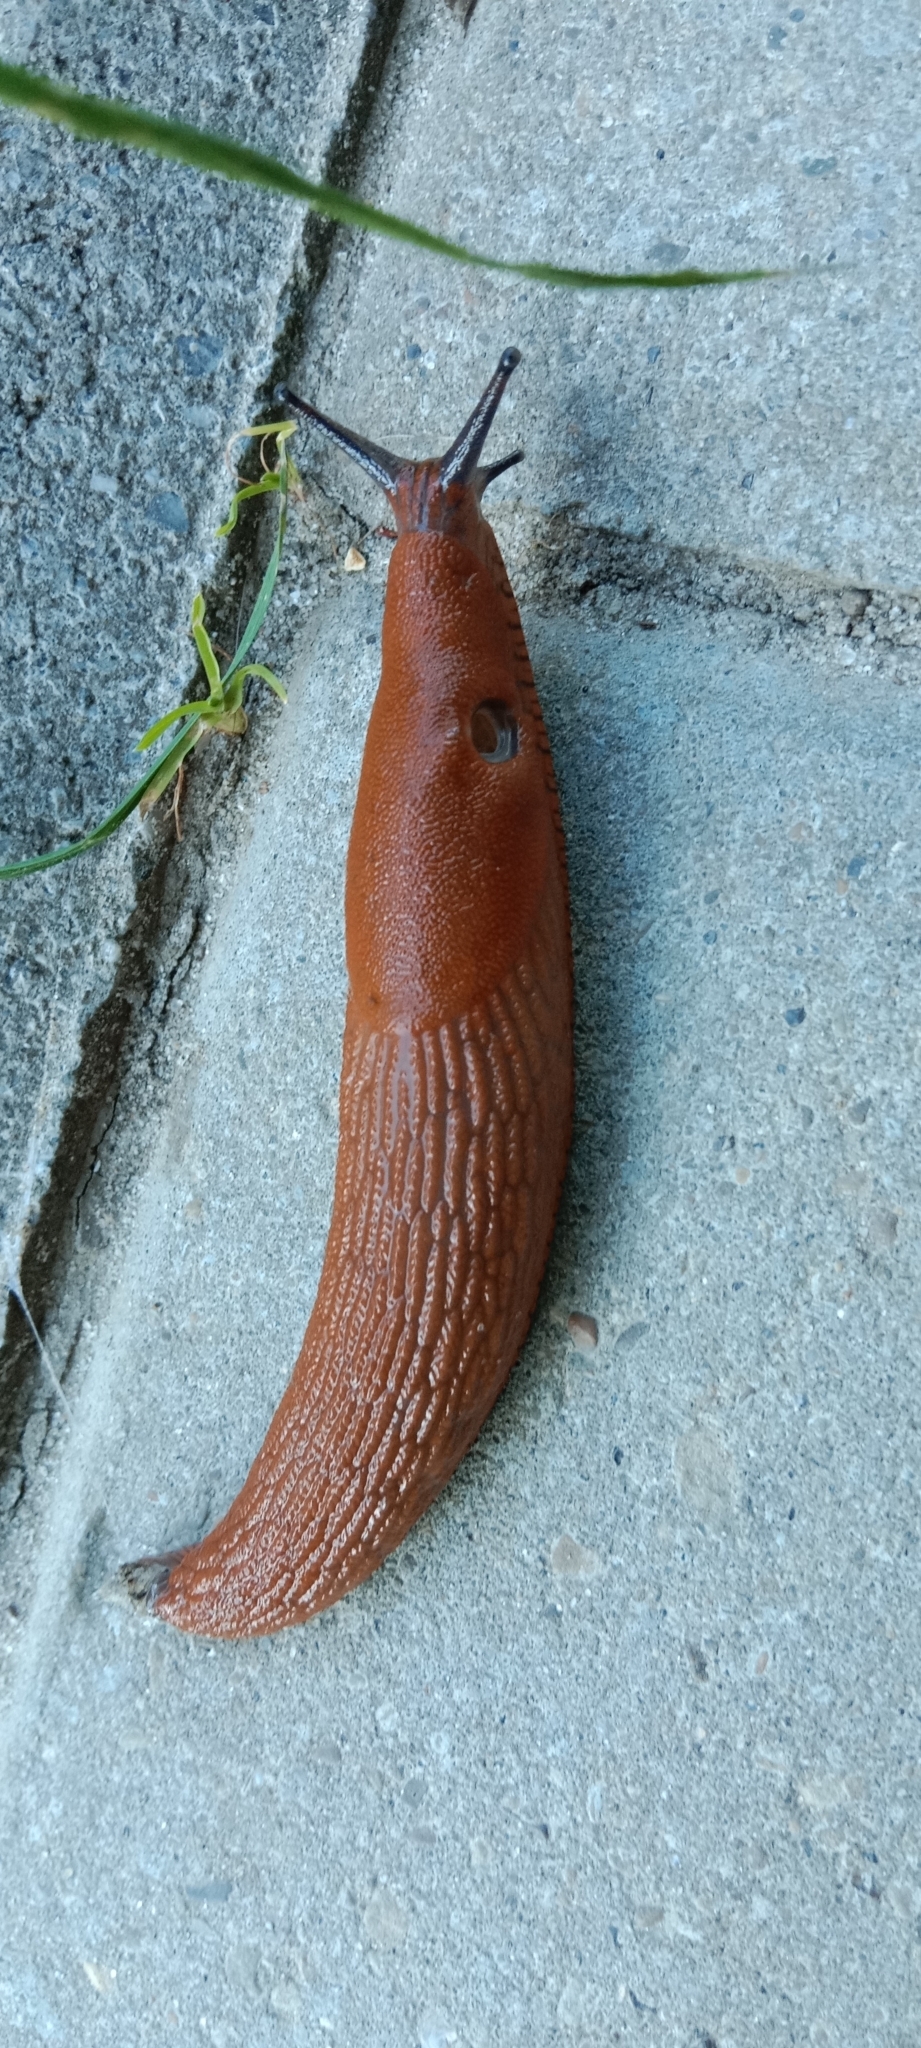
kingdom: Animalia
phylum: Mollusca
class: Gastropoda
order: Stylommatophora
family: Arionidae
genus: Arion
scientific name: Arion vulgaris
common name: Lusitanian slug
